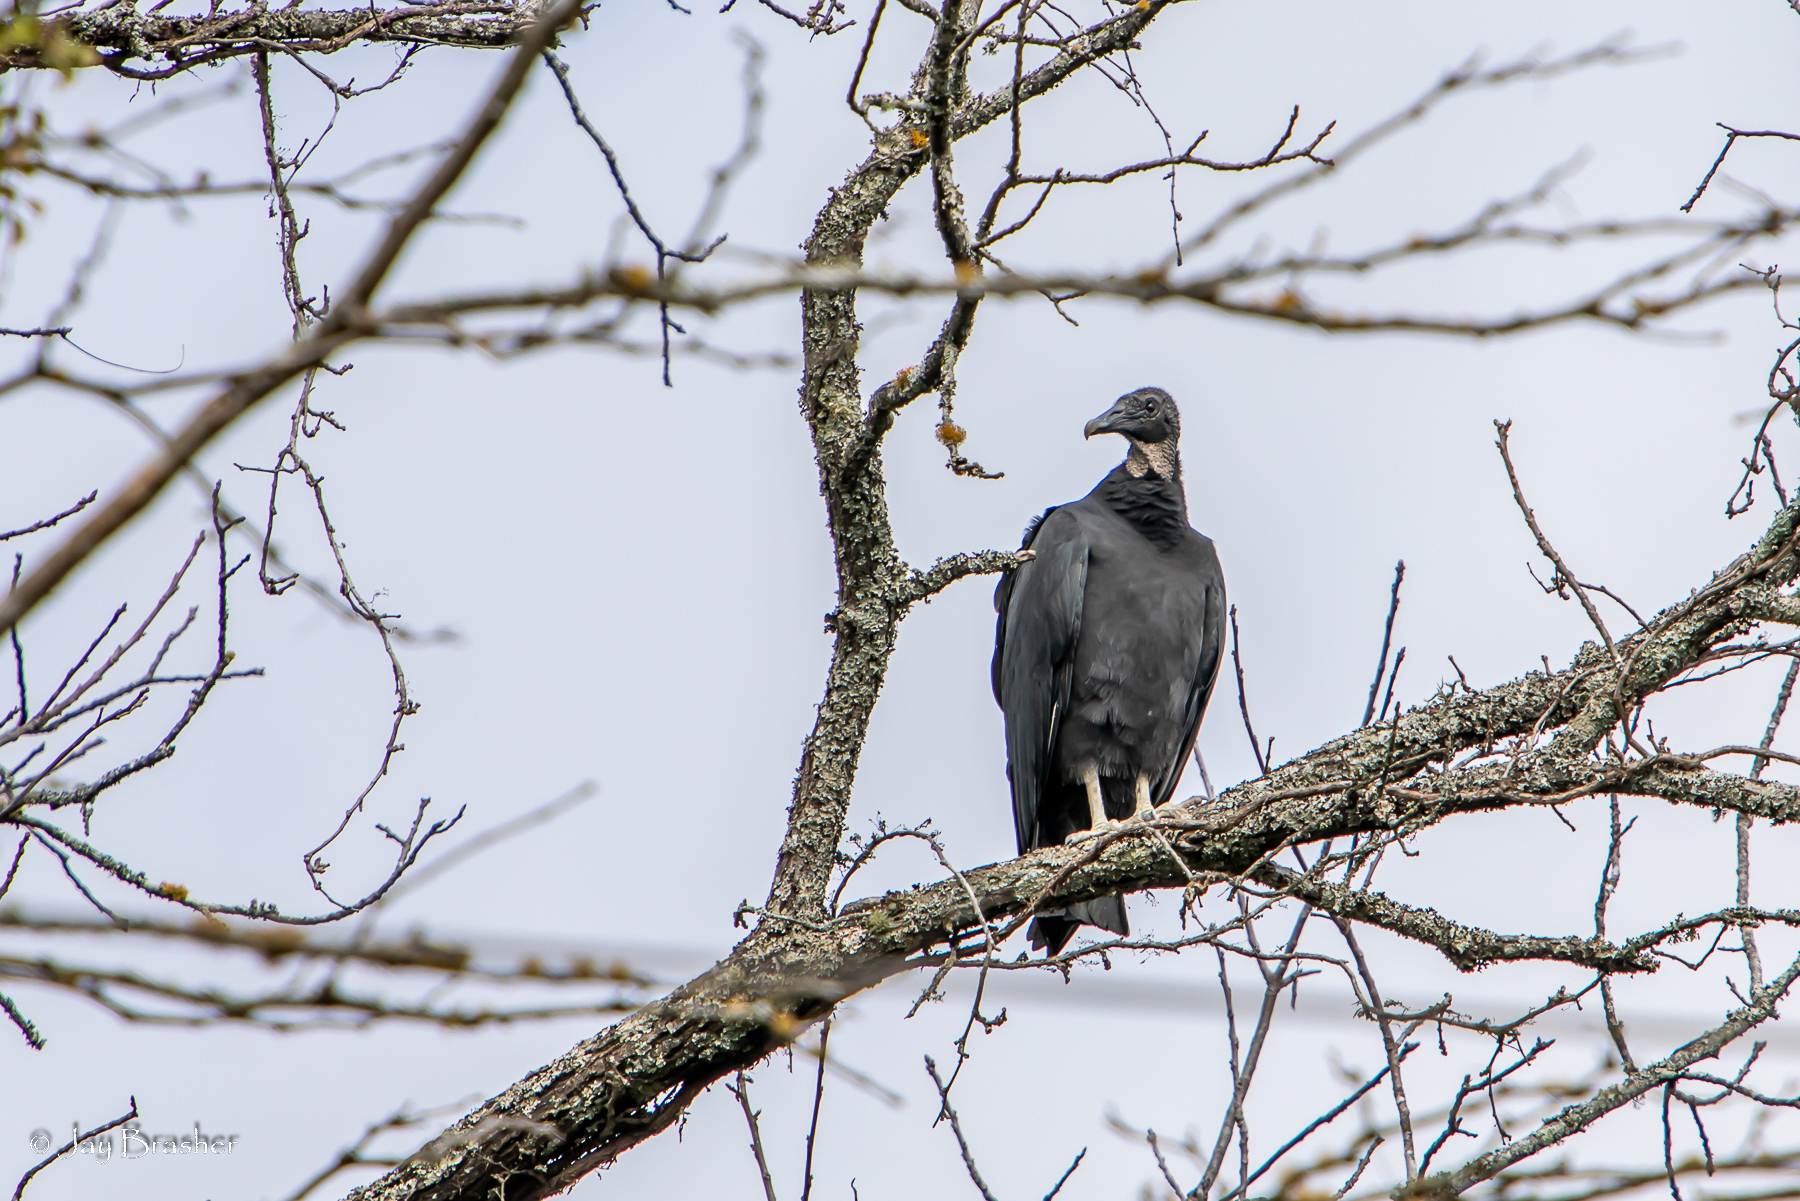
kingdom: Animalia
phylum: Chordata
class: Aves
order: Accipitriformes
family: Cathartidae
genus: Coragyps
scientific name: Coragyps atratus
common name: Black vulture
